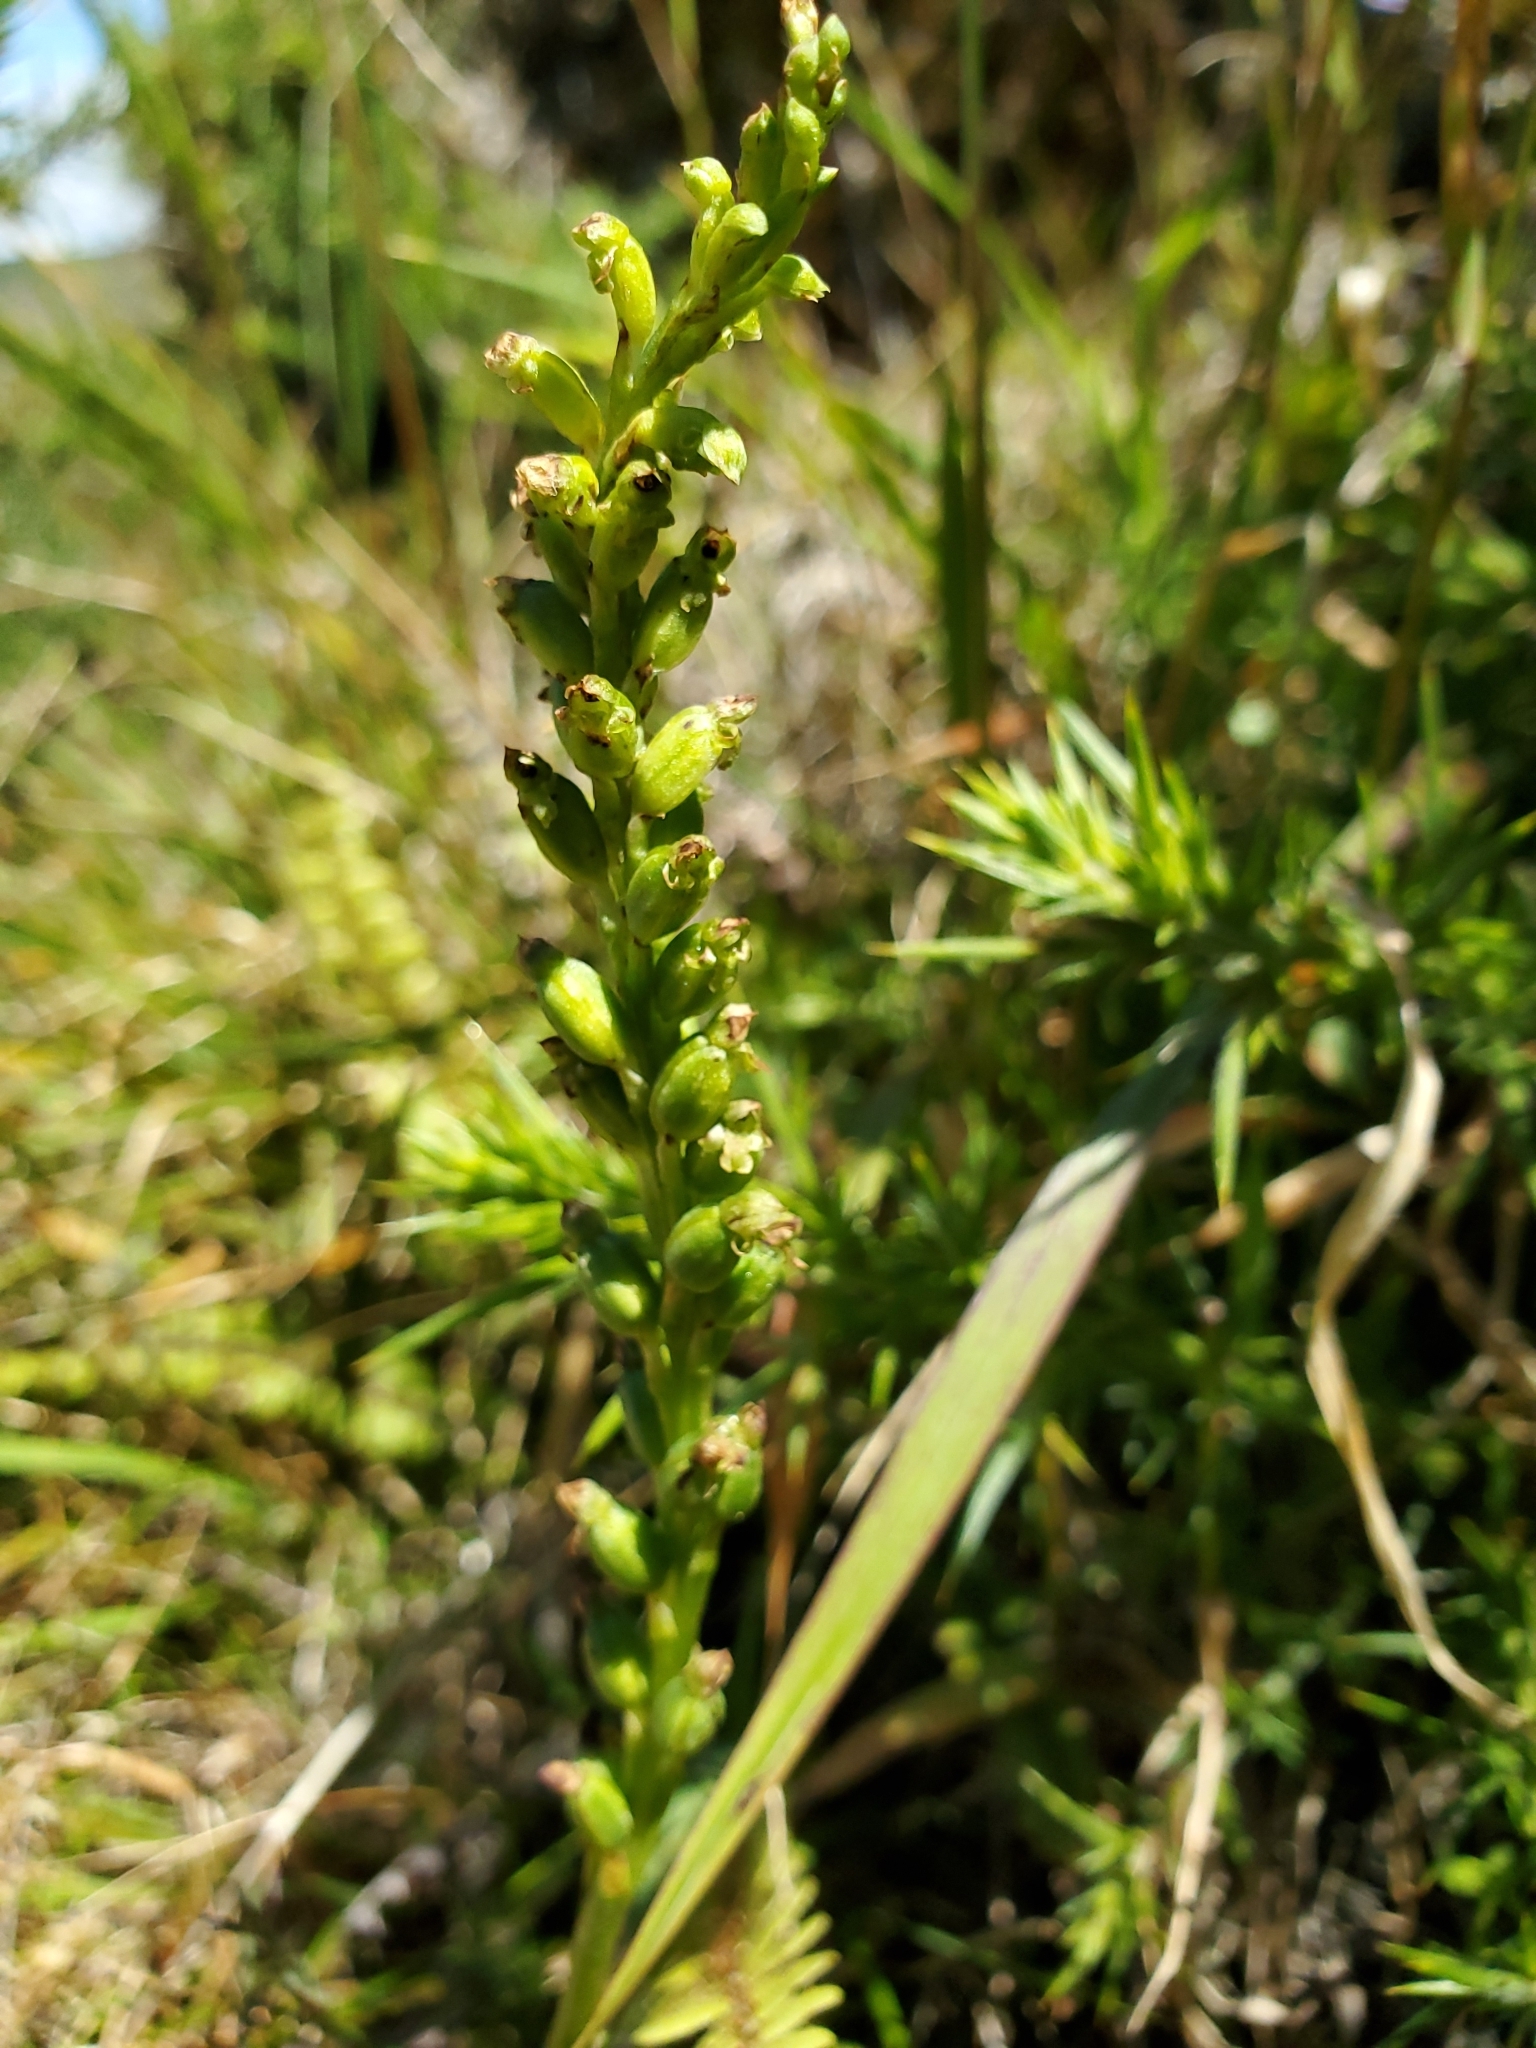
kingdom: Plantae
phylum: Tracheophyta
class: Liliopsida
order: Asparagales
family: Orchidaceae
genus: Microtis
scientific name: Microtis unifolia
